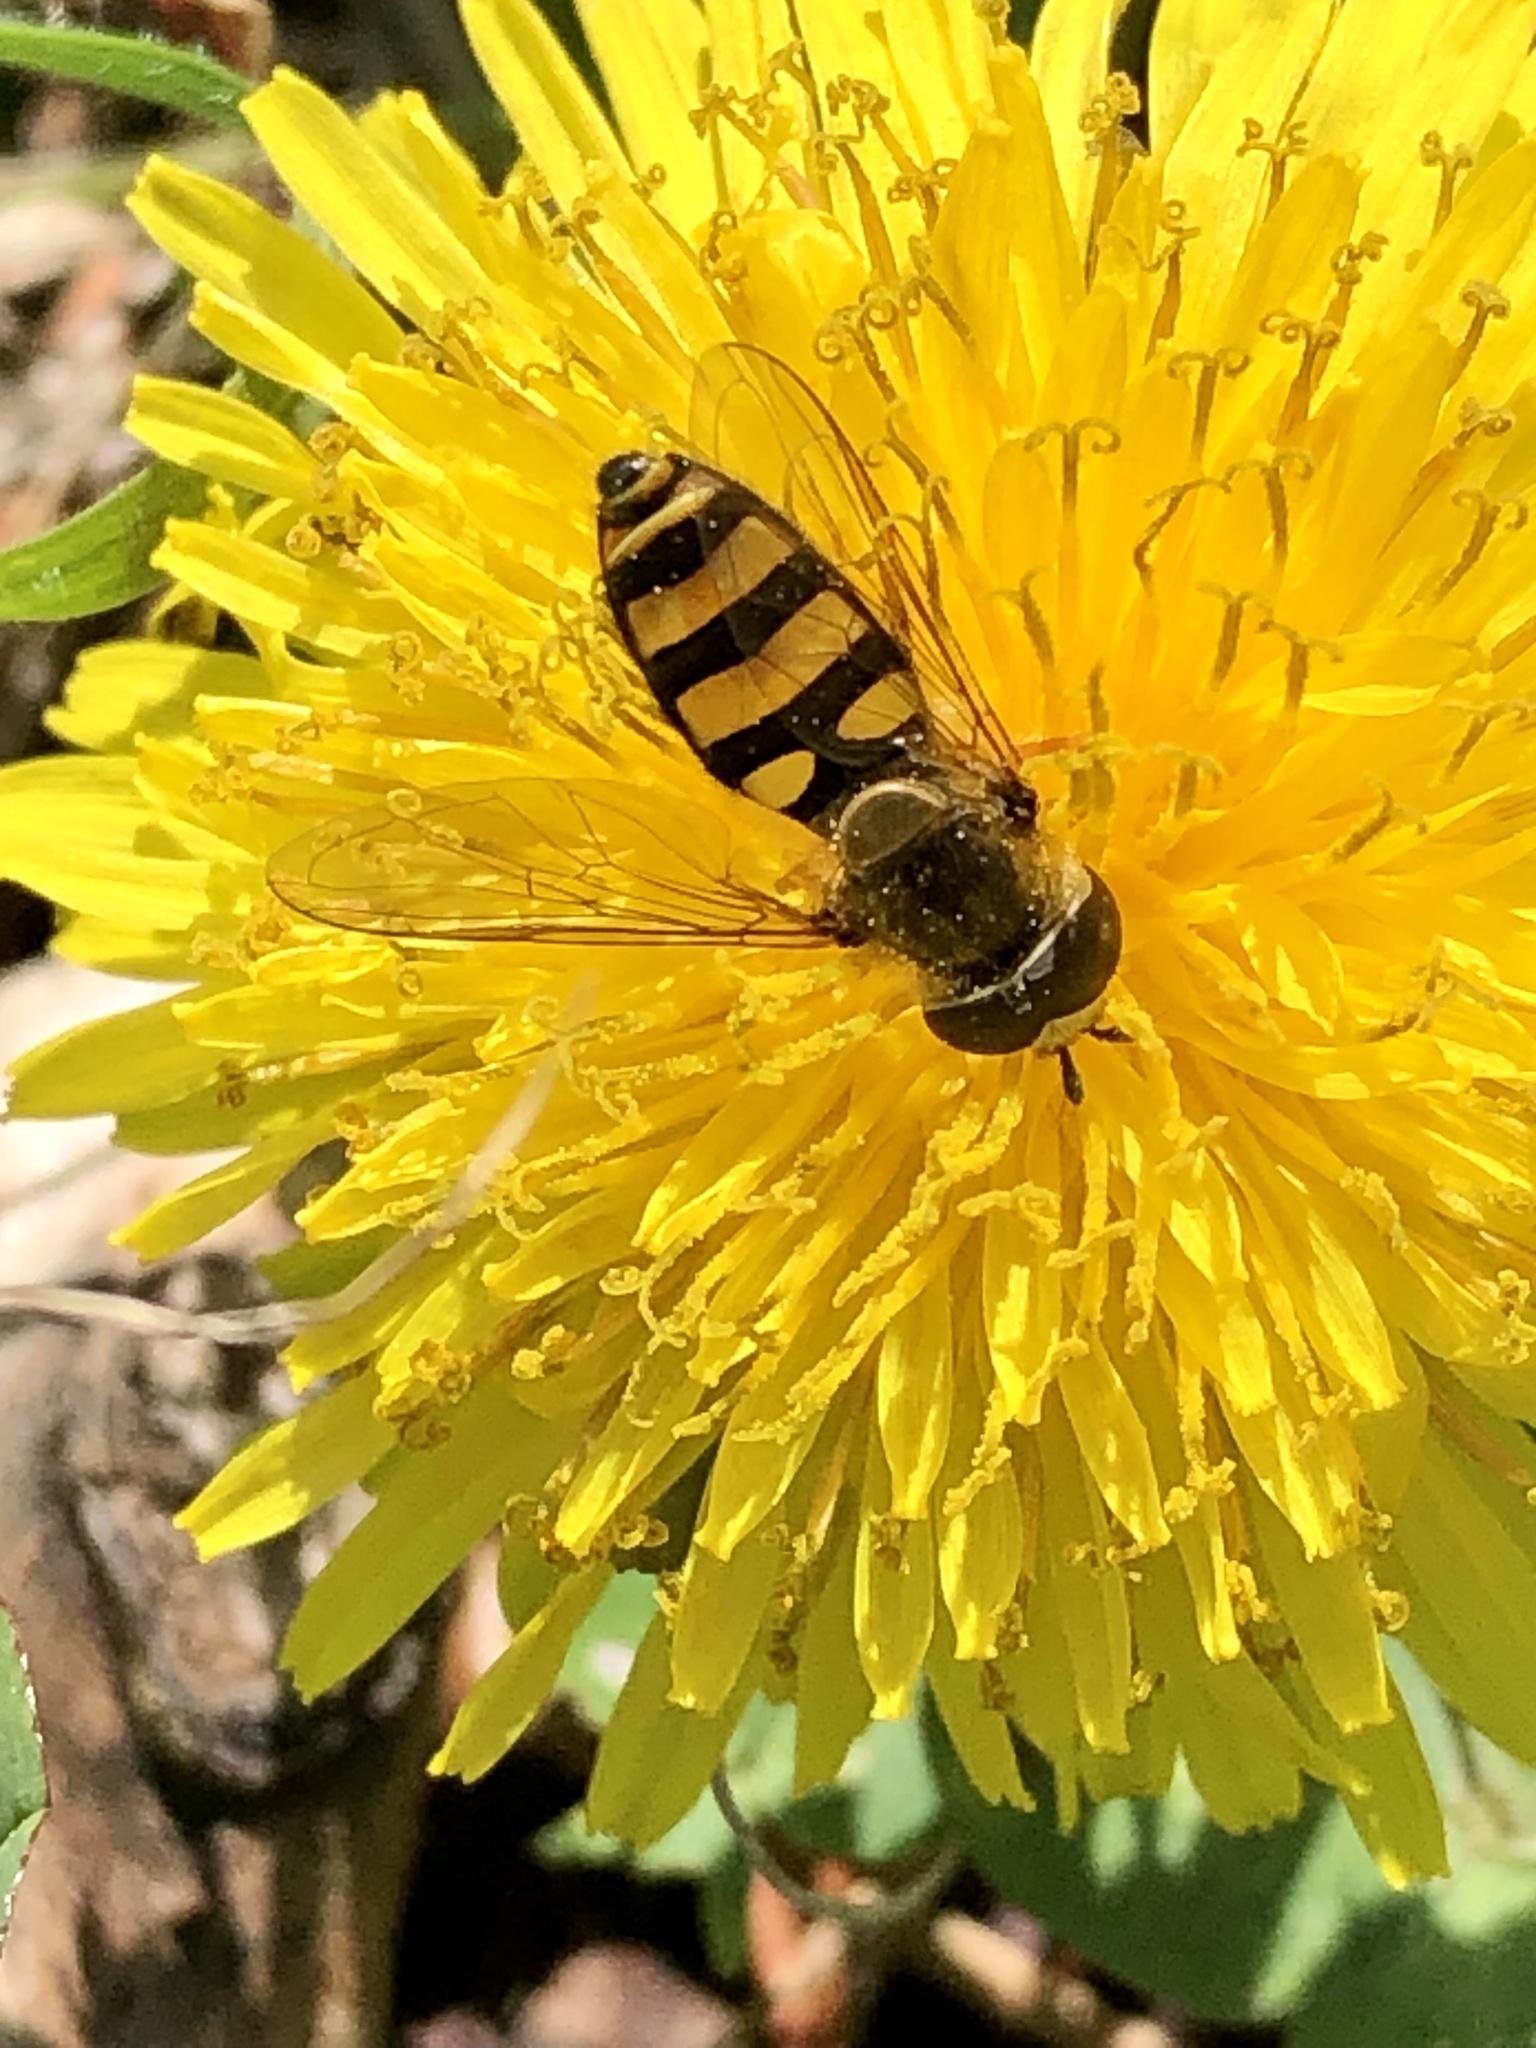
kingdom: Animalia
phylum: Arthropoda
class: Insecta
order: Diptera
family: Syrphidae
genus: Eupeodes
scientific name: Eupeodes
